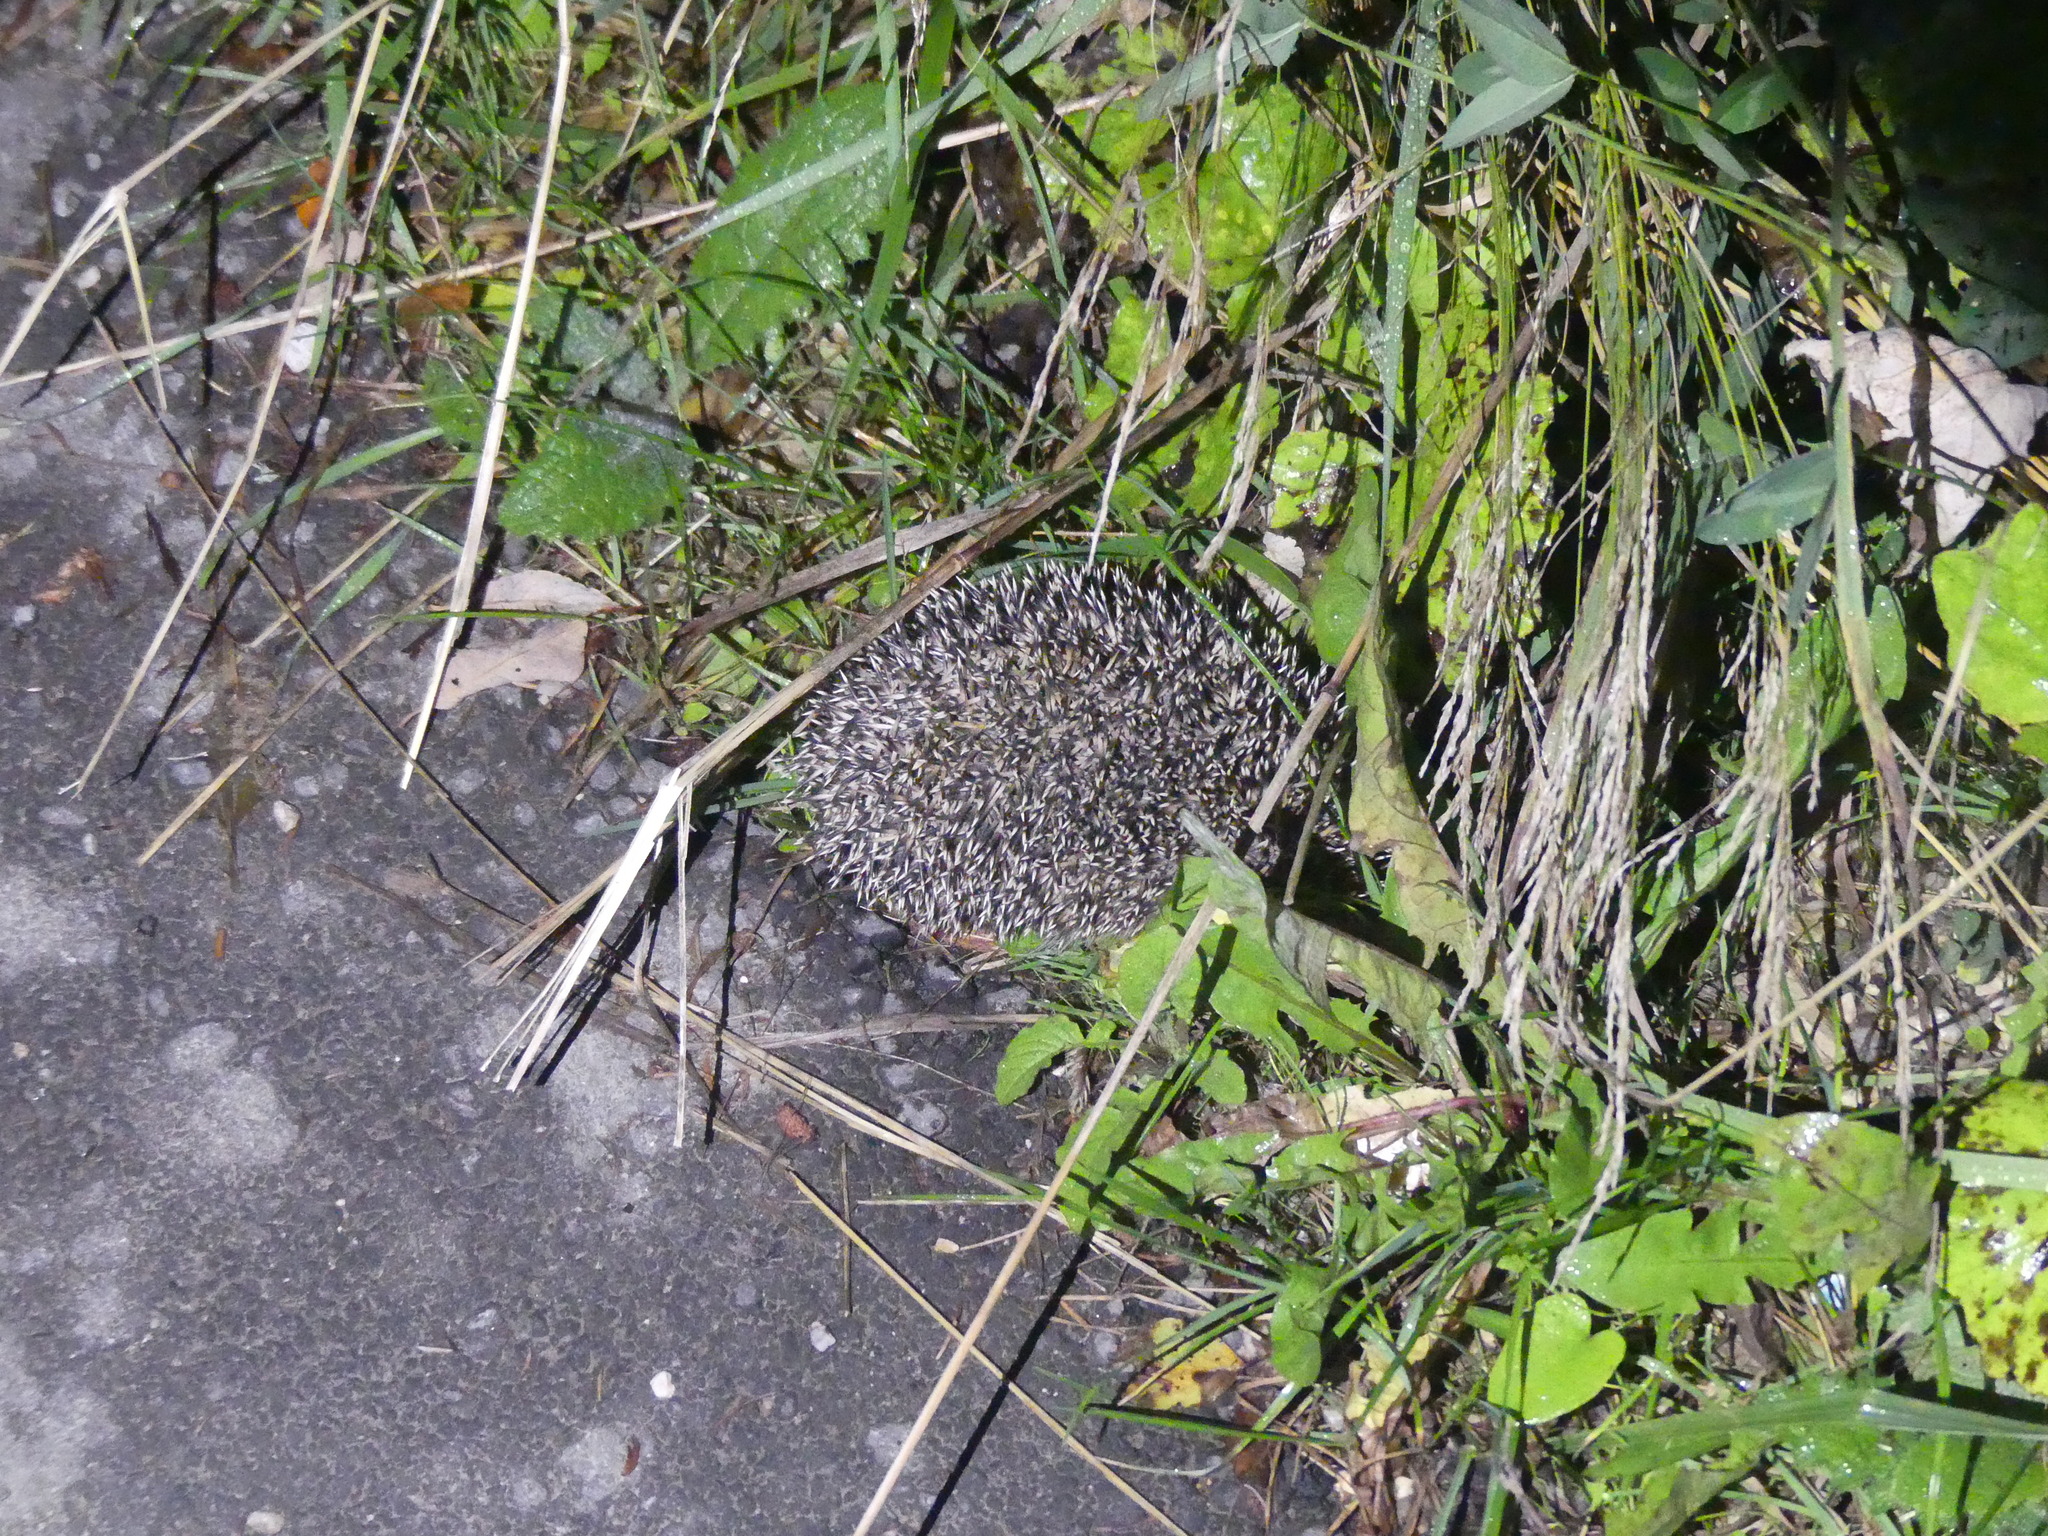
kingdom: Animalia
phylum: Chordata
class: Mammalia
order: Erinaceomorpha
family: Erinaceidae
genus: Erinaceus
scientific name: Erinaceus roumanicus
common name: Northern white-breasted hedgehog
